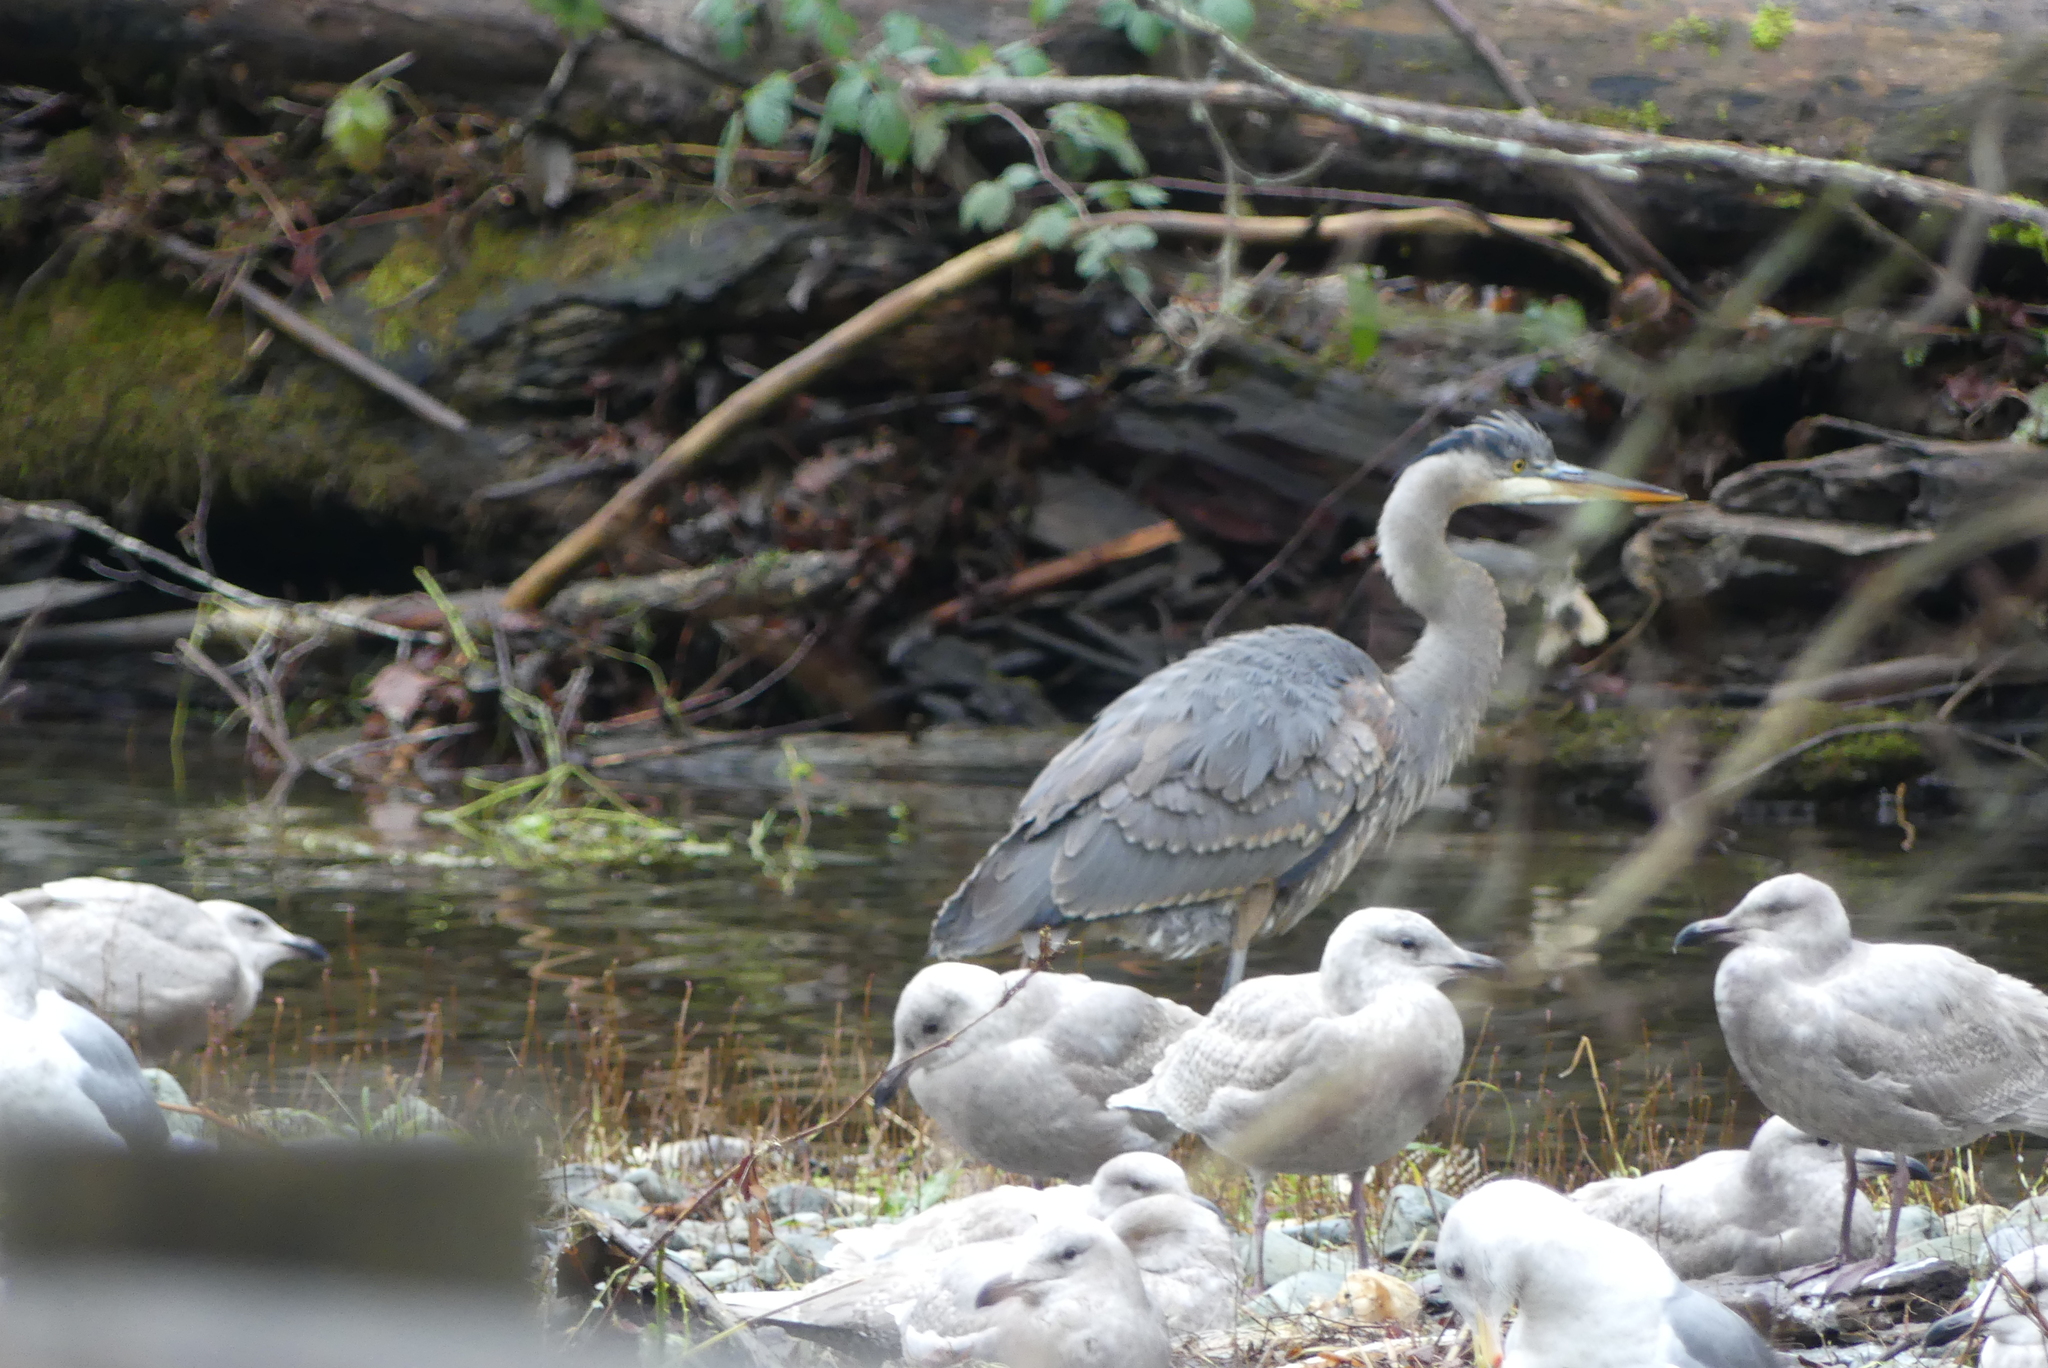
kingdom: Animalia
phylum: Chordata
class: Aves
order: Pelecaniformes
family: Ardeidae
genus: Ardea
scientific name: Ardea herodias
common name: Great blue heron
